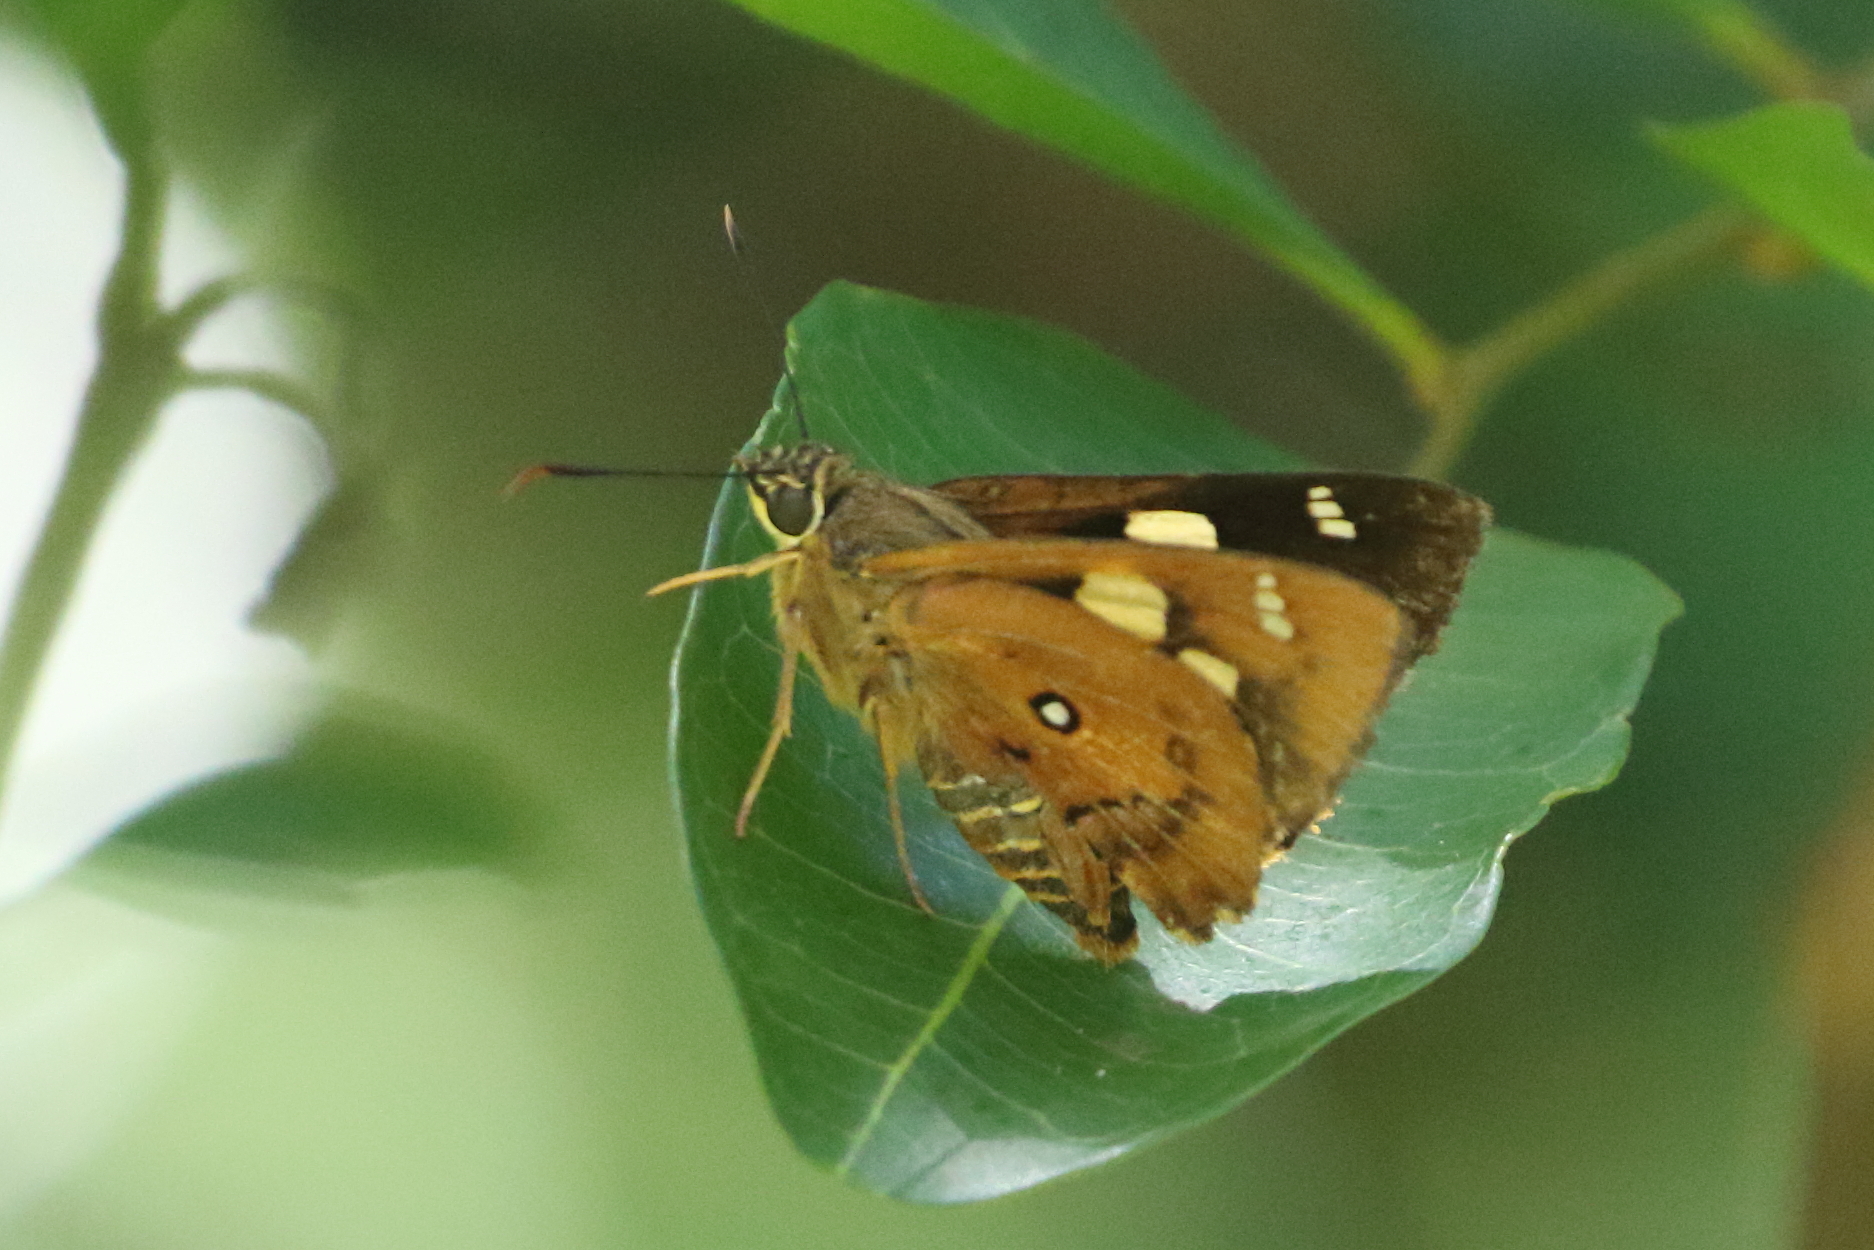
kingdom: Animalia
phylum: Arthropoda
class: Insecta
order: Lepidoptera
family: Hesperiidae
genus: Trapezites
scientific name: Trapezites symmomus
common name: Splendid ochre
